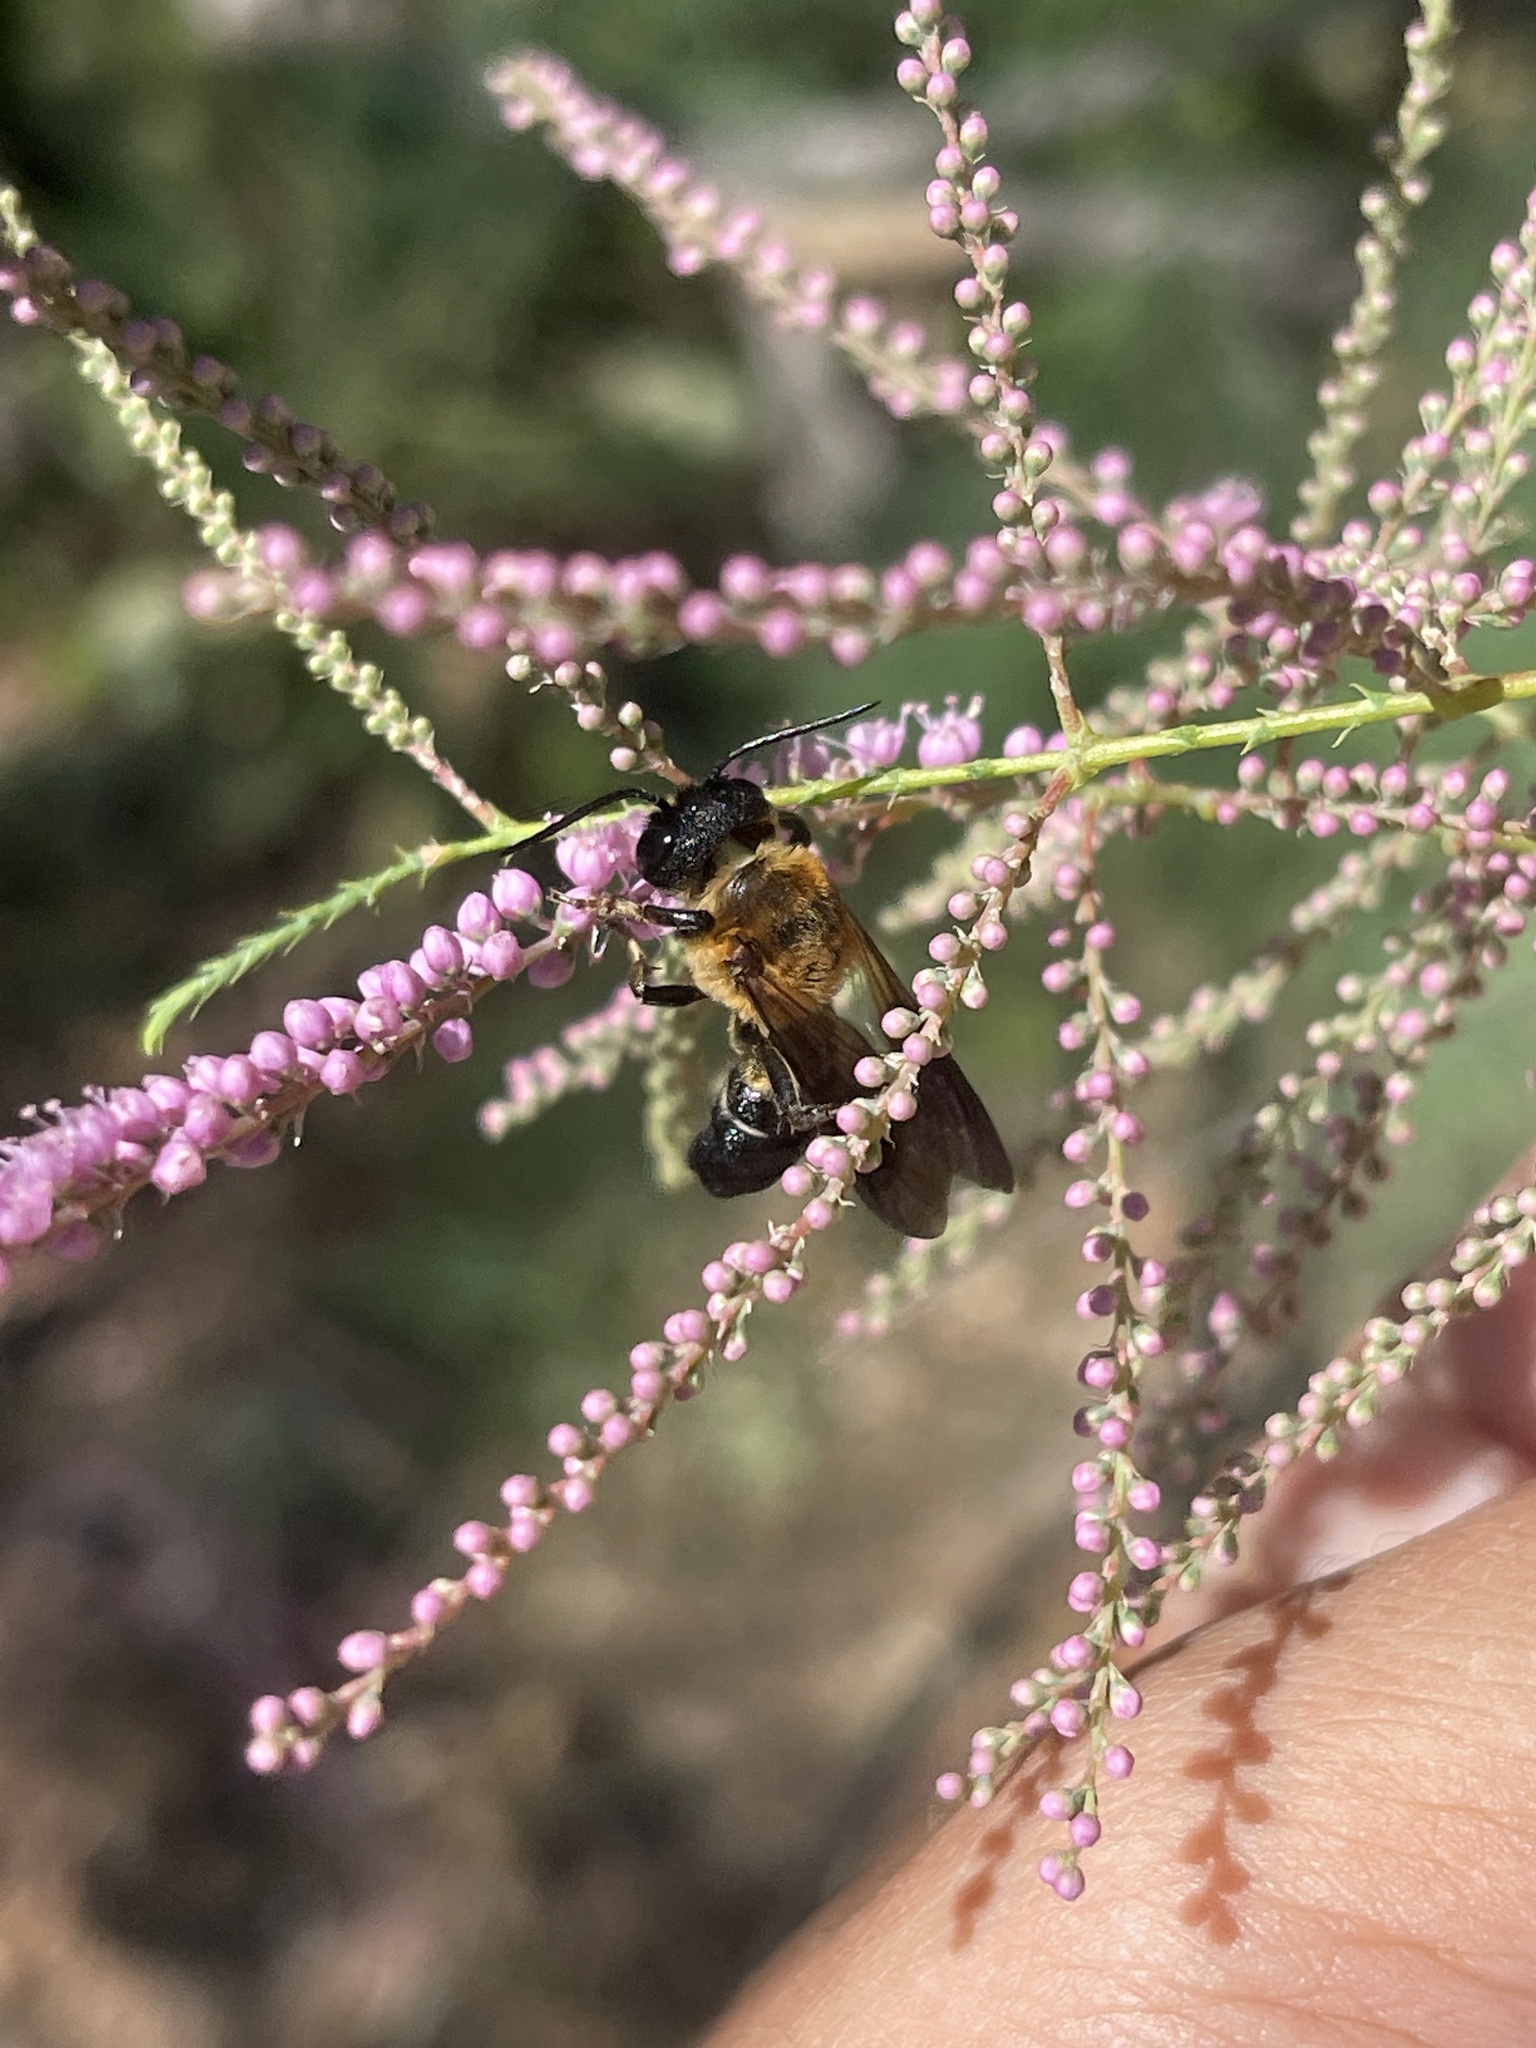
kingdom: Animalia
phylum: Arthropoda
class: Insecta
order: Hymenoptera
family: Megachilidae
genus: Megachile
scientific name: Megachile sculpturalis
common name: Sculptured resin bee
